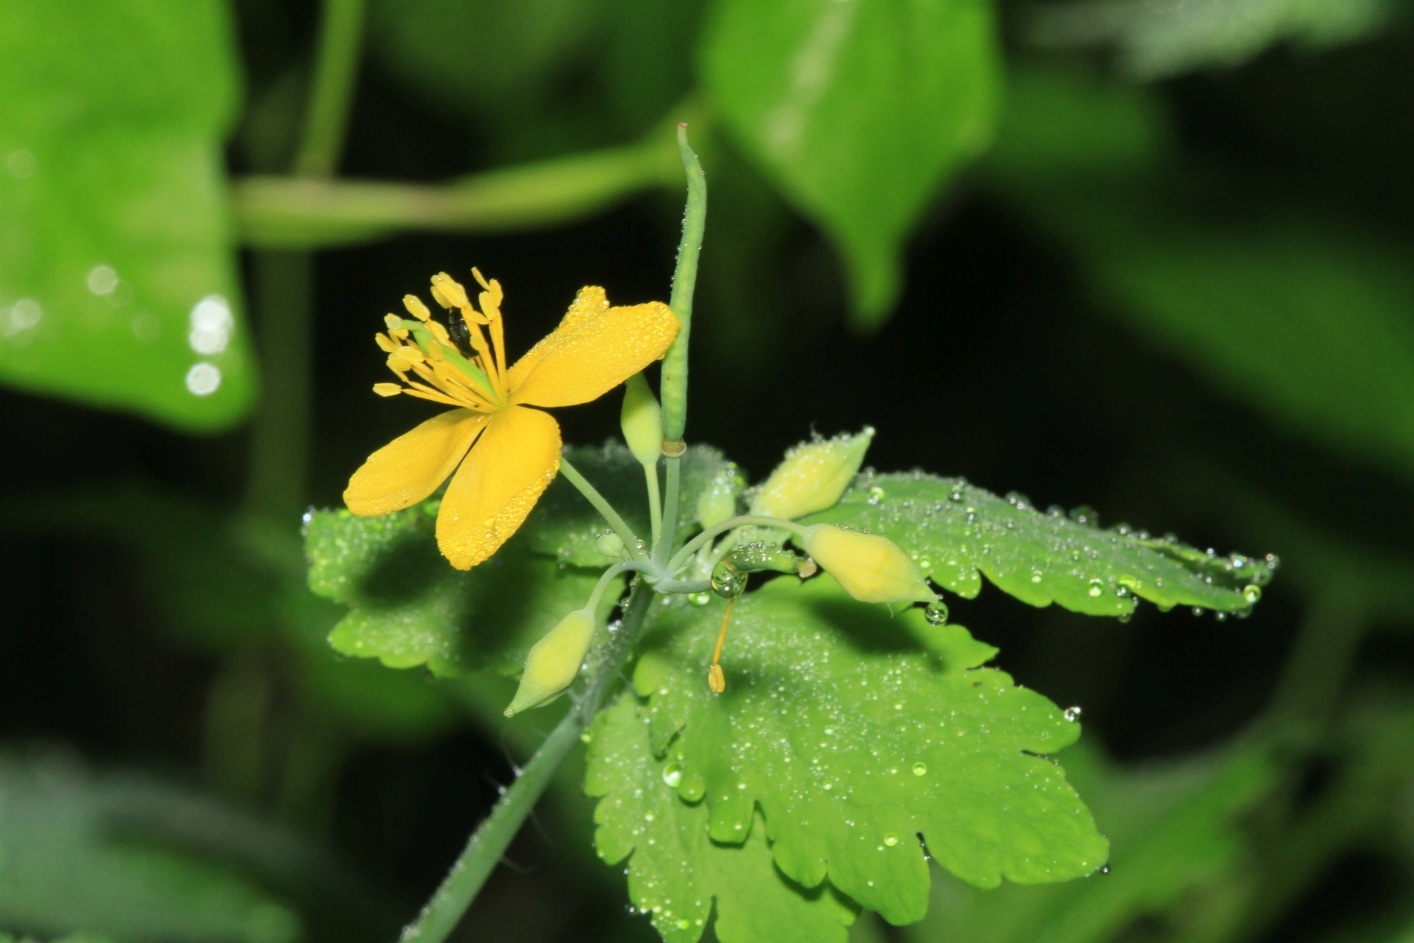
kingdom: Plantae
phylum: Tracheophyta
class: Magnoliopsida
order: Ranunculales
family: Papaveraceae
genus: Chelidonium
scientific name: Chelidonium majus
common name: Greater celandine
